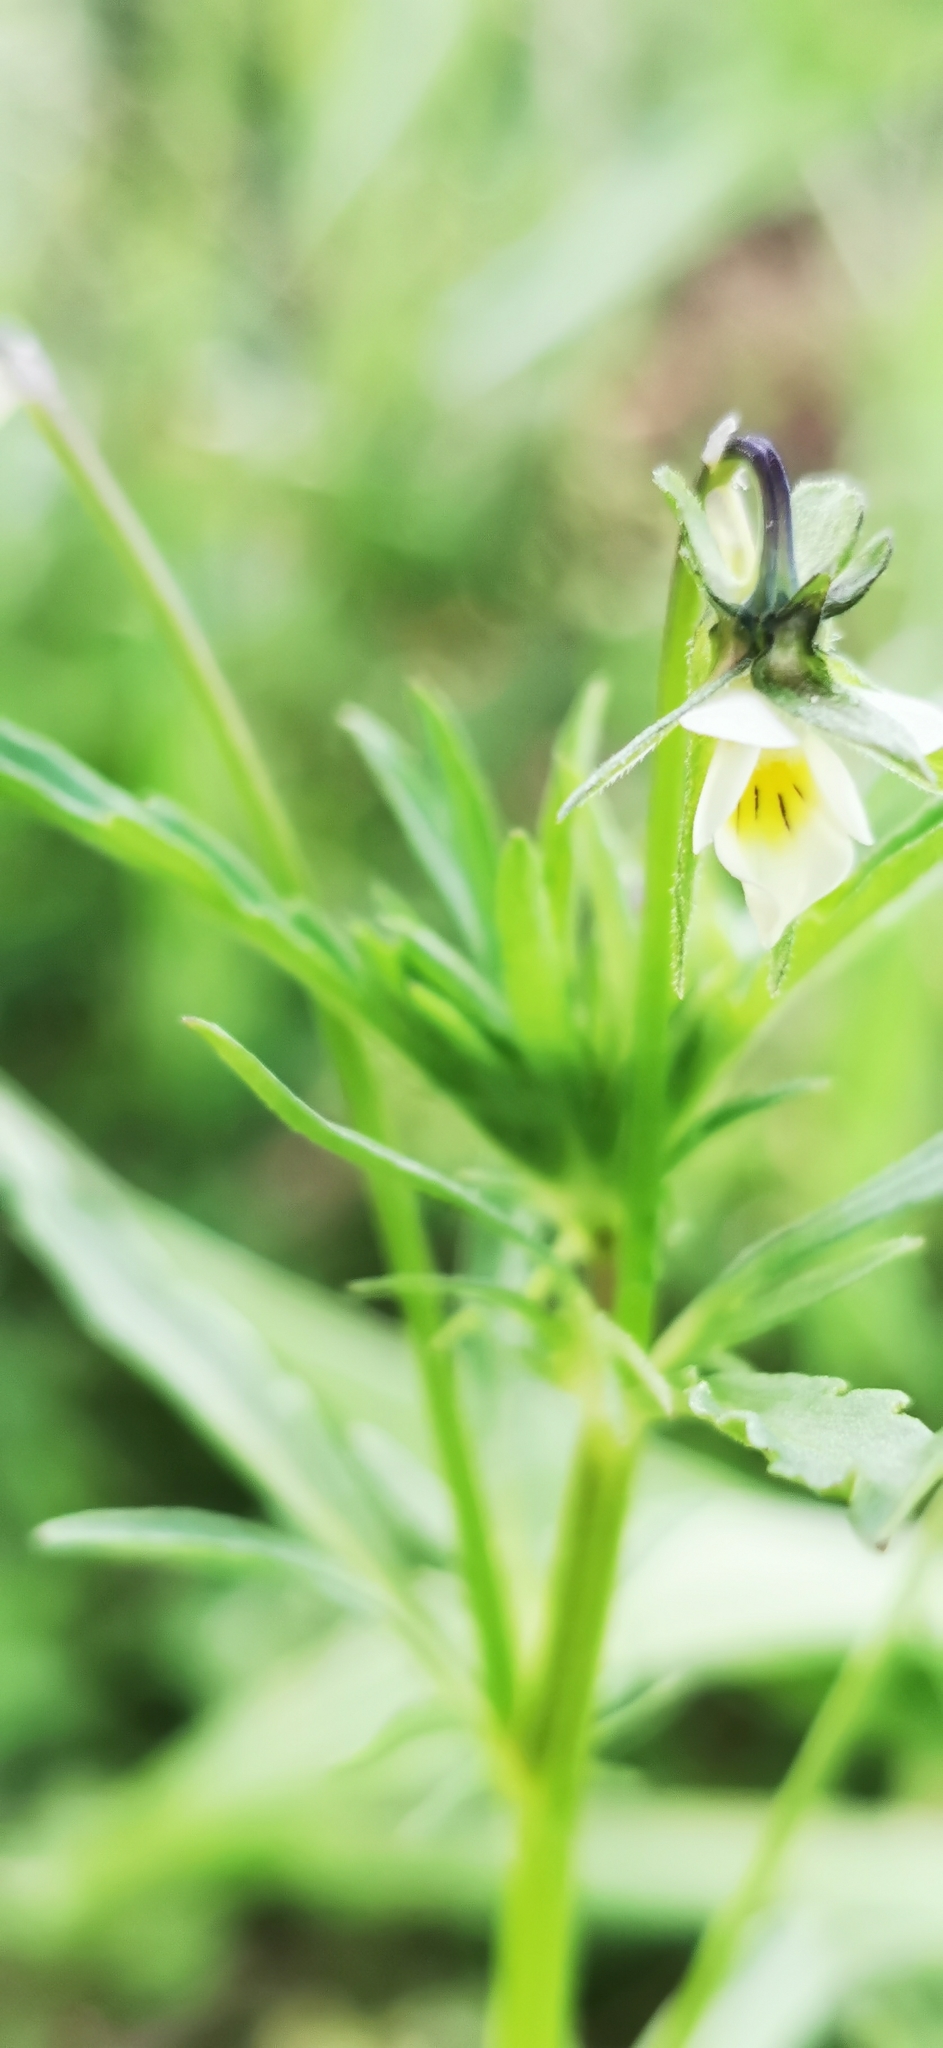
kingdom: Plantae
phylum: Tracheophyta
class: Magnoliopsida
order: Malpighiales
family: Violaceae
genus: Viola
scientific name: Viola arvensis
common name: Field pansy
